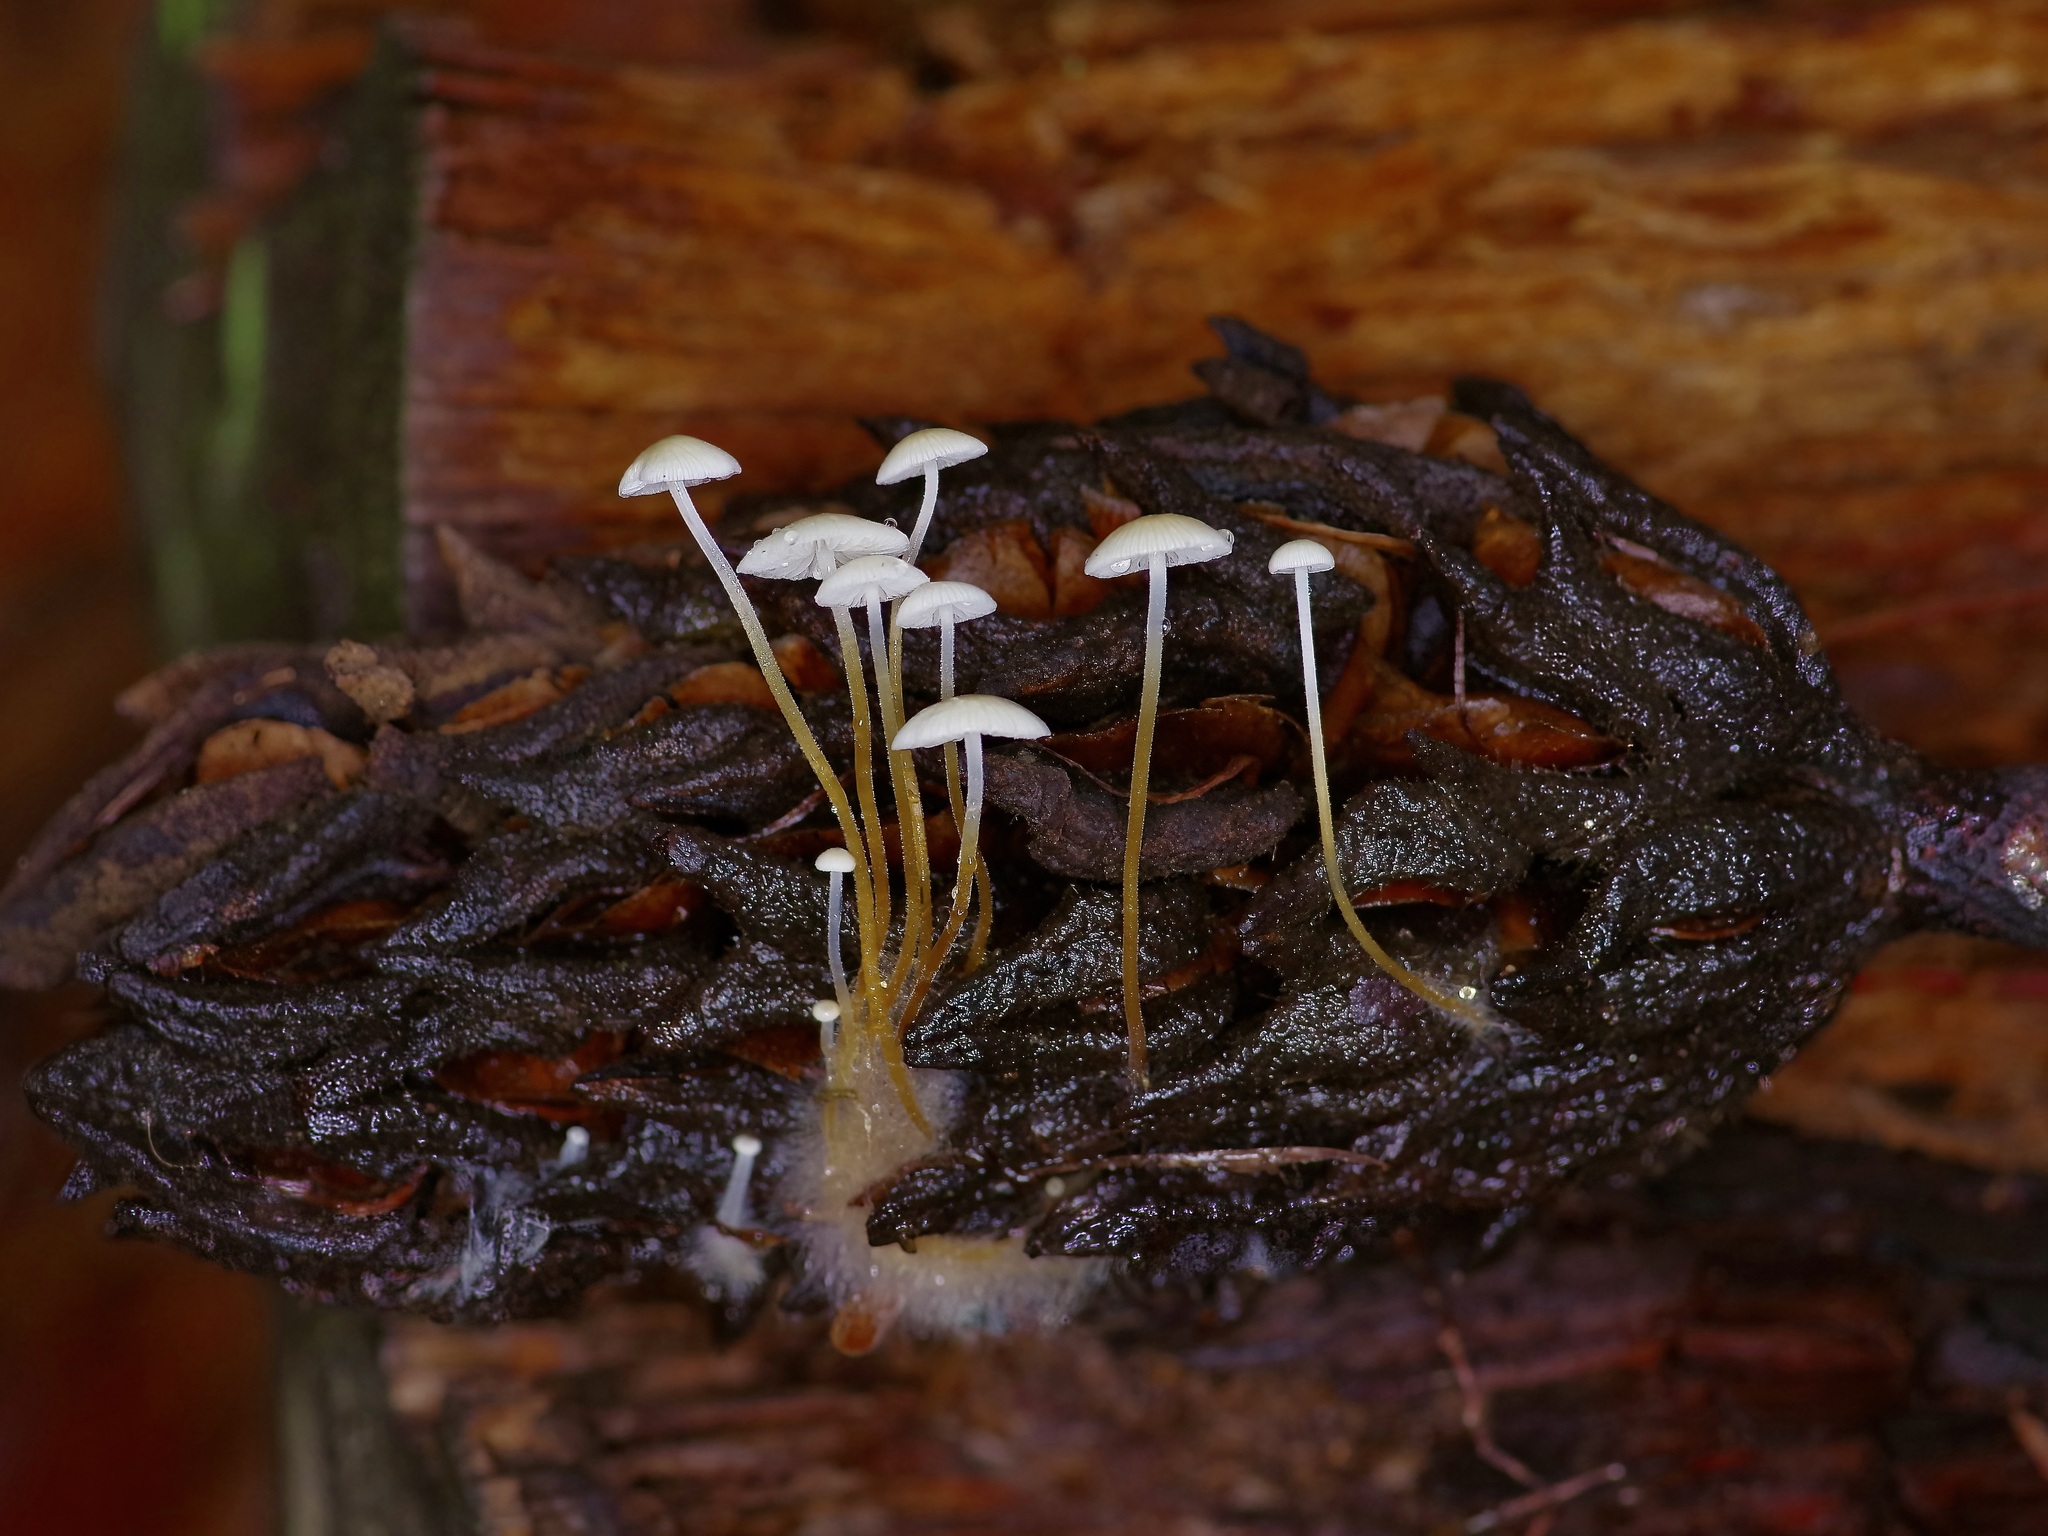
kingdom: Fungi
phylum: Basidiomycota
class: Agaricomycetes
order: Agaricales
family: Physalacriaceae
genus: Strobilurus
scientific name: Strobilurus conigenoides
